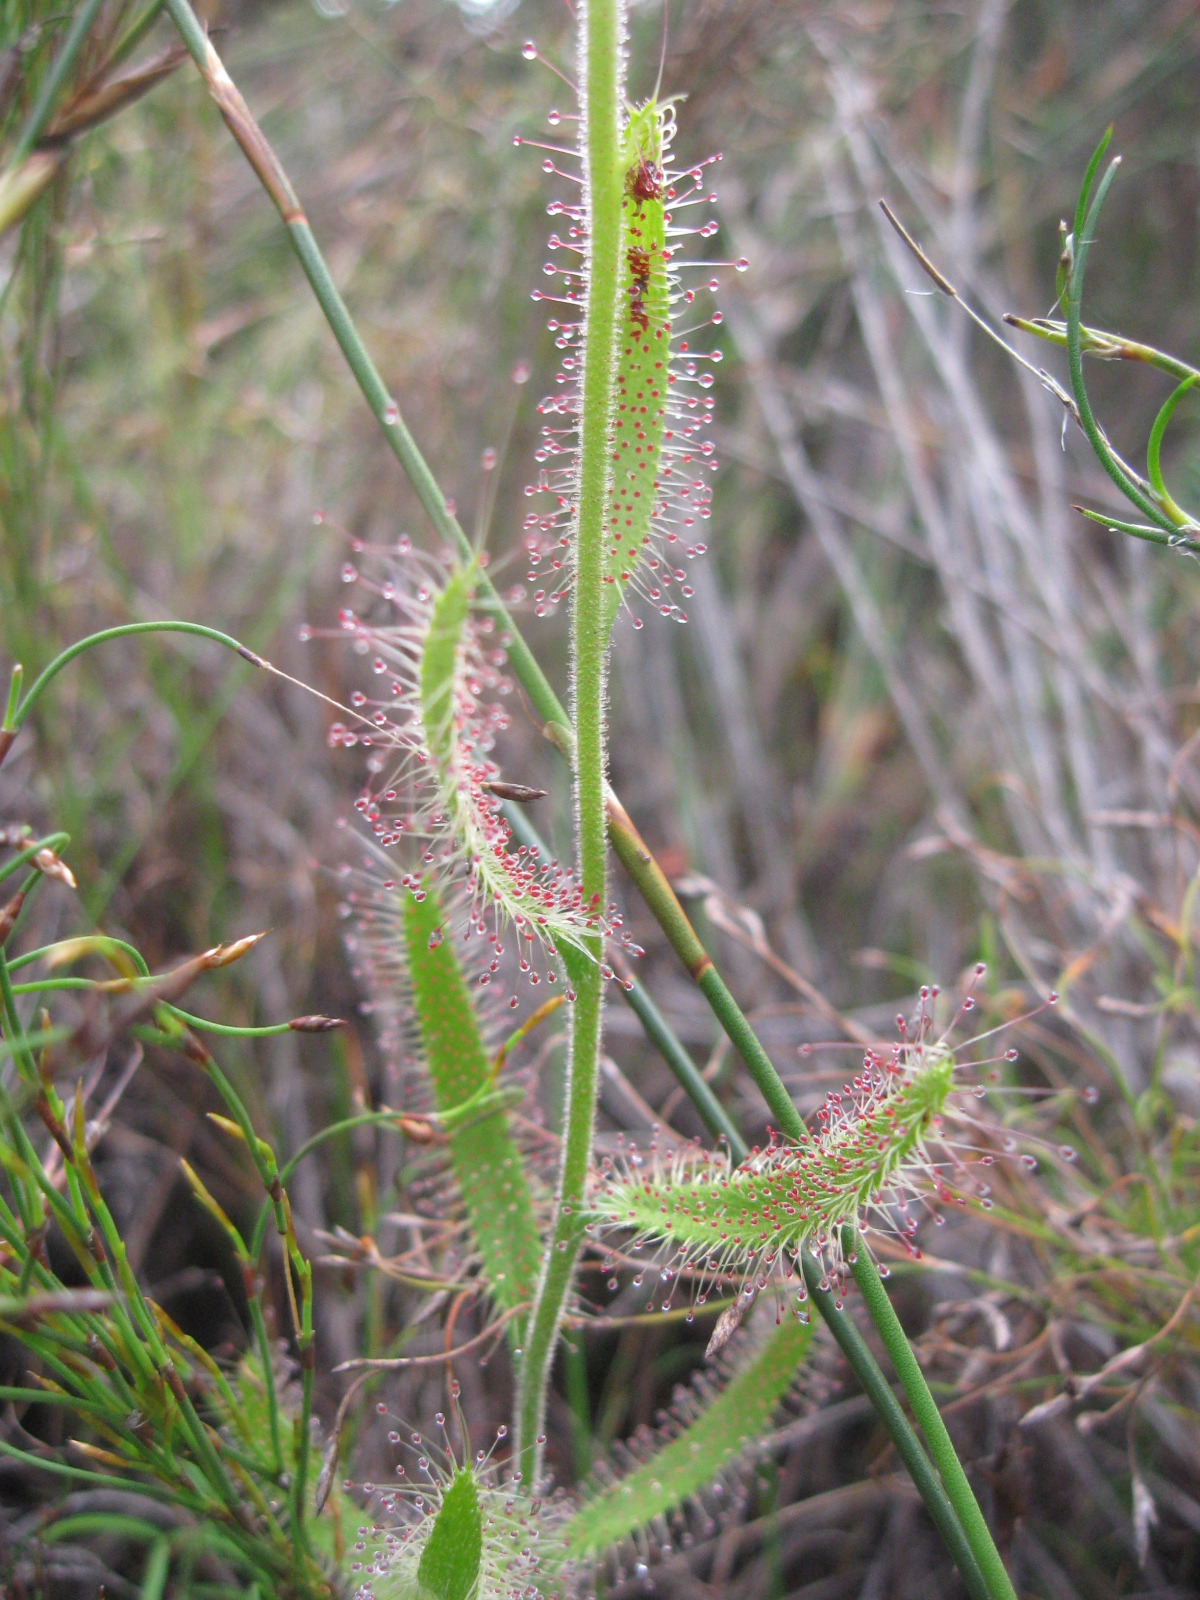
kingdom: Plantae
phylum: Tracheophyta
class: Magnoliopsida
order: Caryophyllales
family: Droseraceae
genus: Drosera
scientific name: Drosera cistiflora
